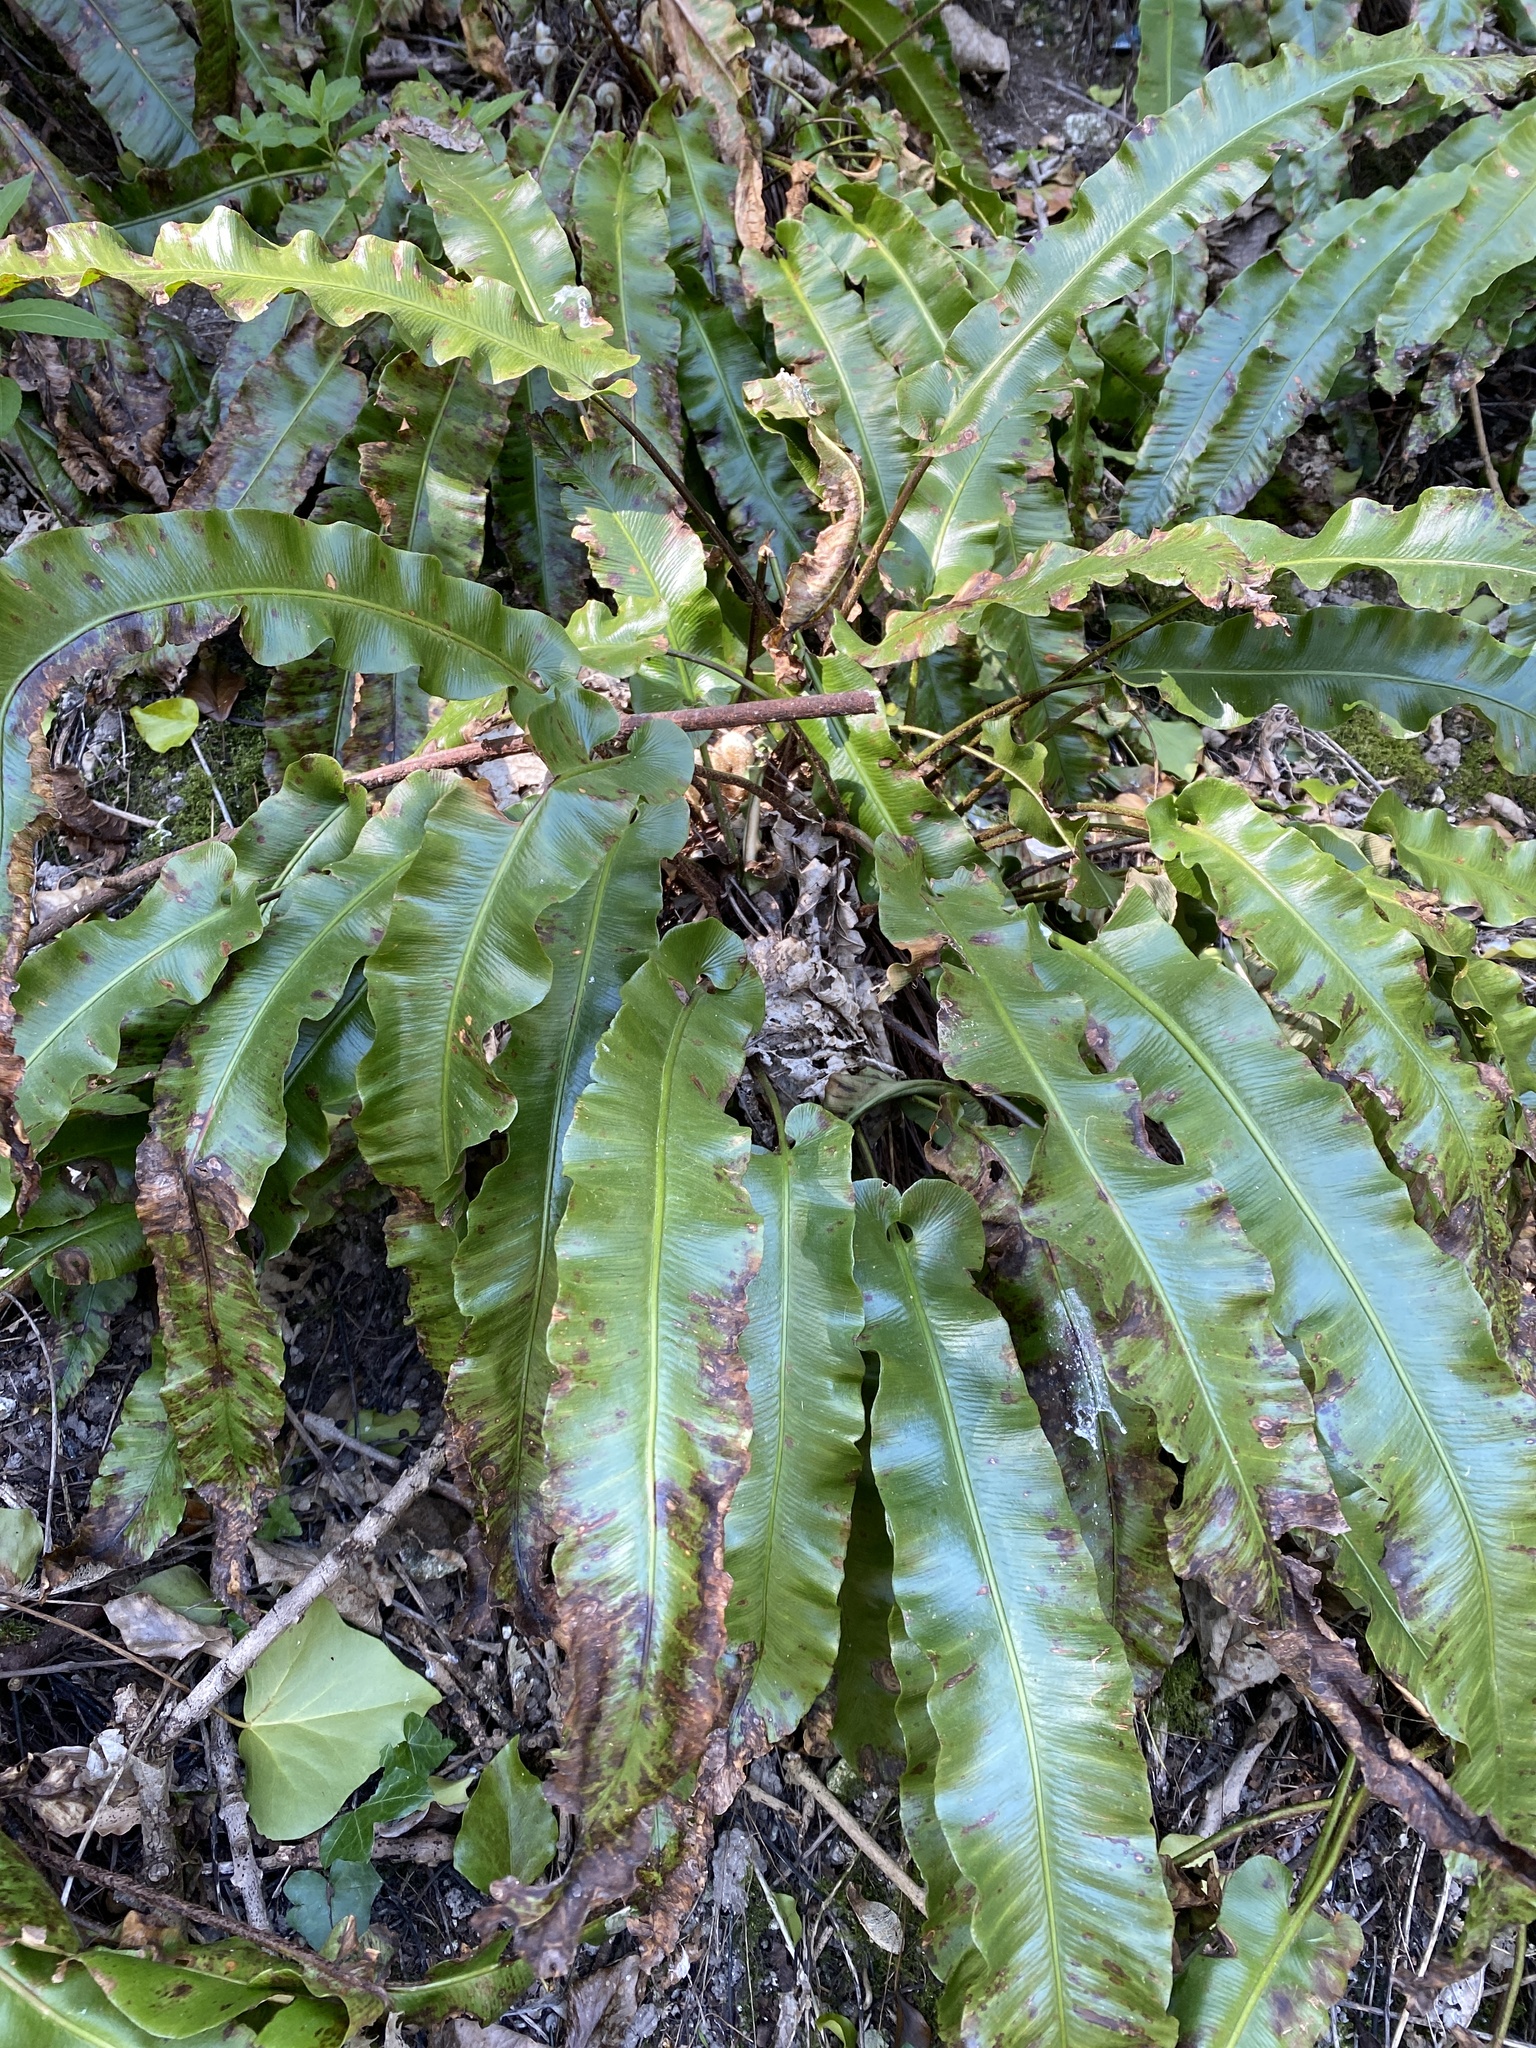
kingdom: Plantae
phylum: Tracheophyta
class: Polypodiopsida
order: Polypodiales
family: Aspleniaceae
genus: Asplenium
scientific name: Asplenium scolopendrium
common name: Hart's-tongue fern
